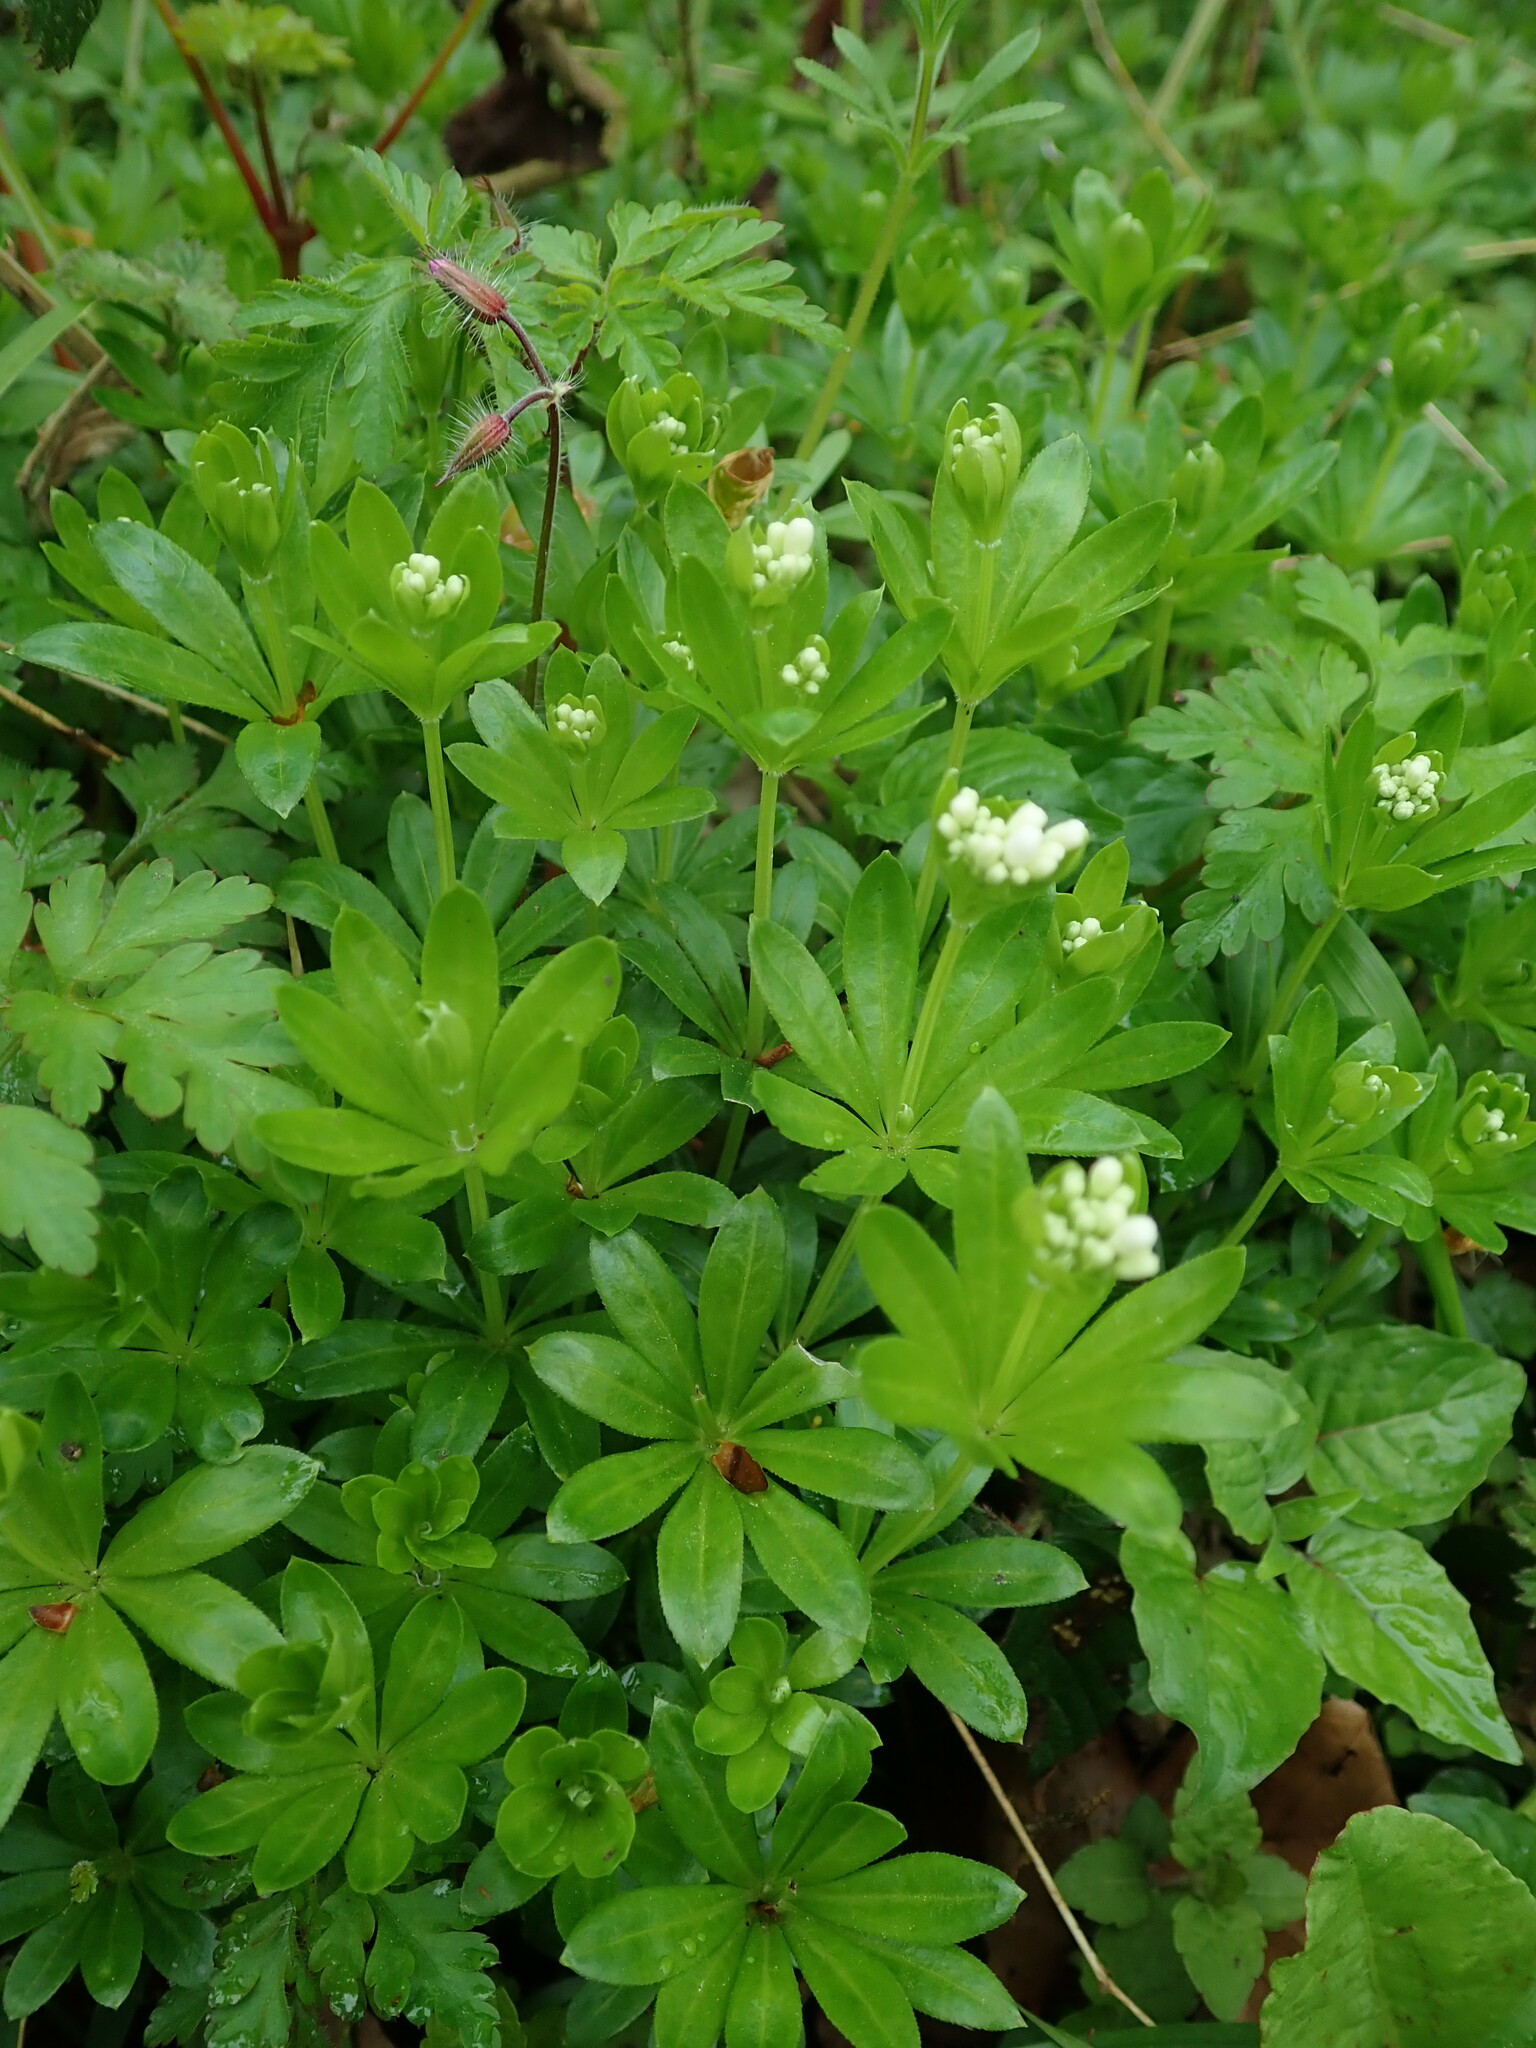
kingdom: Plantae
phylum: Tracheophyta
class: Magnoliopsida
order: Gentianales
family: Rubiaceae
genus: Galium
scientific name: Galium odoratum
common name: Sweet woodruff
